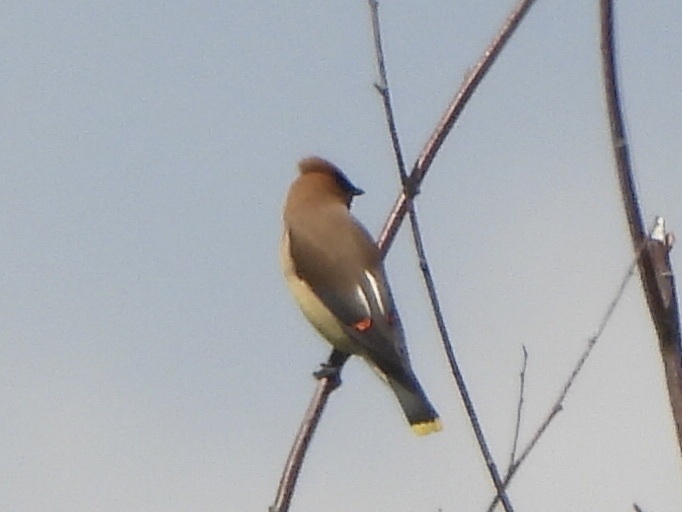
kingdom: Animalia
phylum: Chordata
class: Aves
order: Passeriformes
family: Bombycillidae
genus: Bombycilla
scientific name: Bombycilla cedrorum
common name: Cedar waxwing
